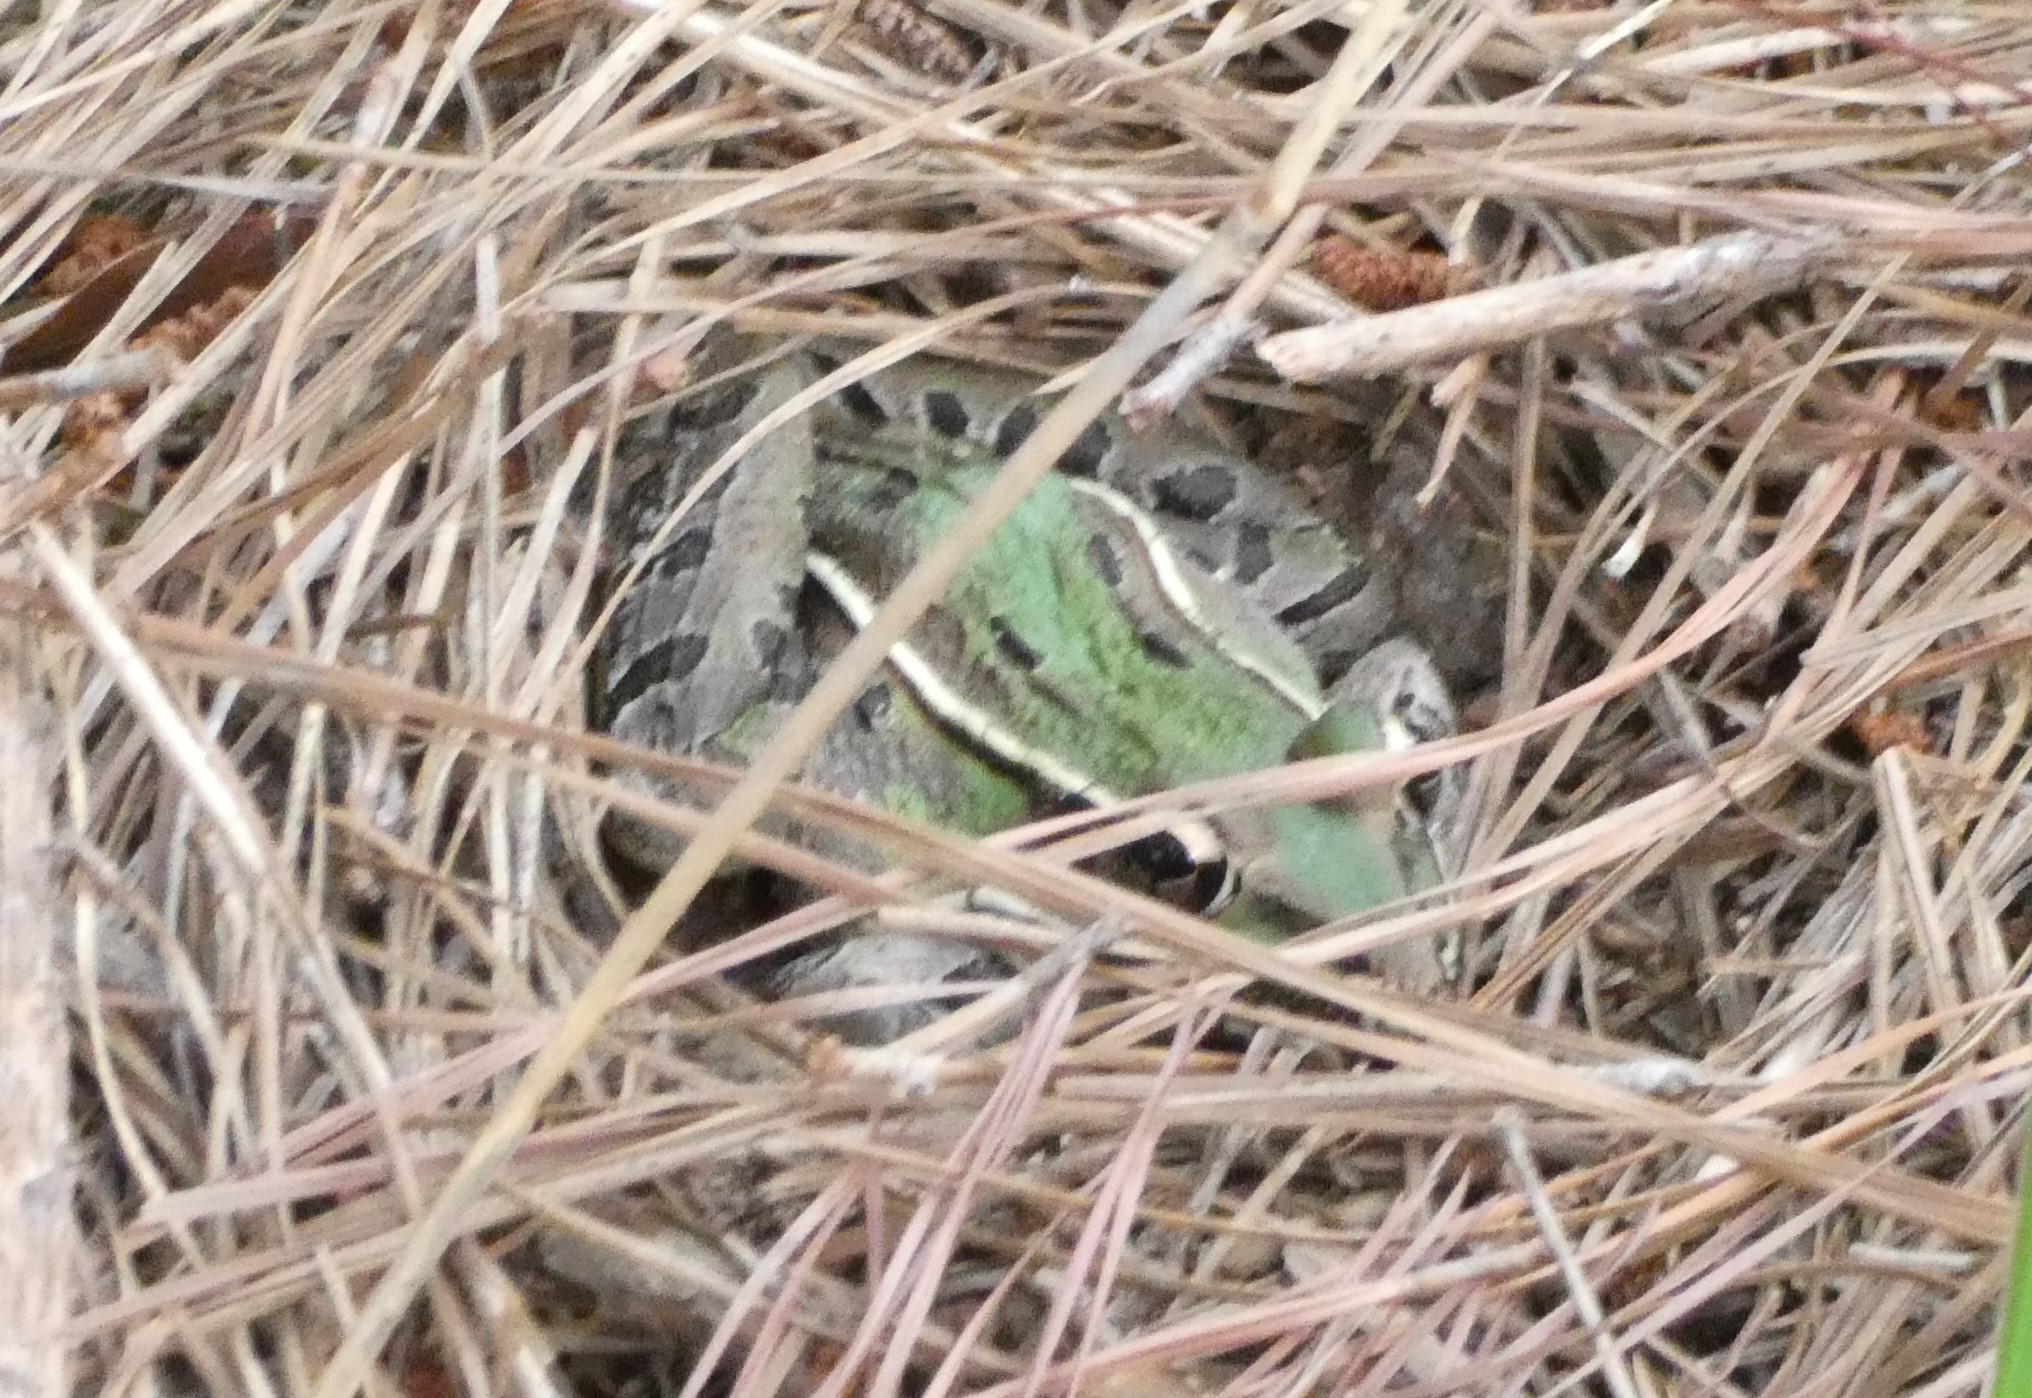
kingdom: Animalia
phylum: Chordata
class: Amphibia
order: Anura
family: Ranidae
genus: Lithobates
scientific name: Lithobates sphenocephalus
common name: Southern leopard frog
